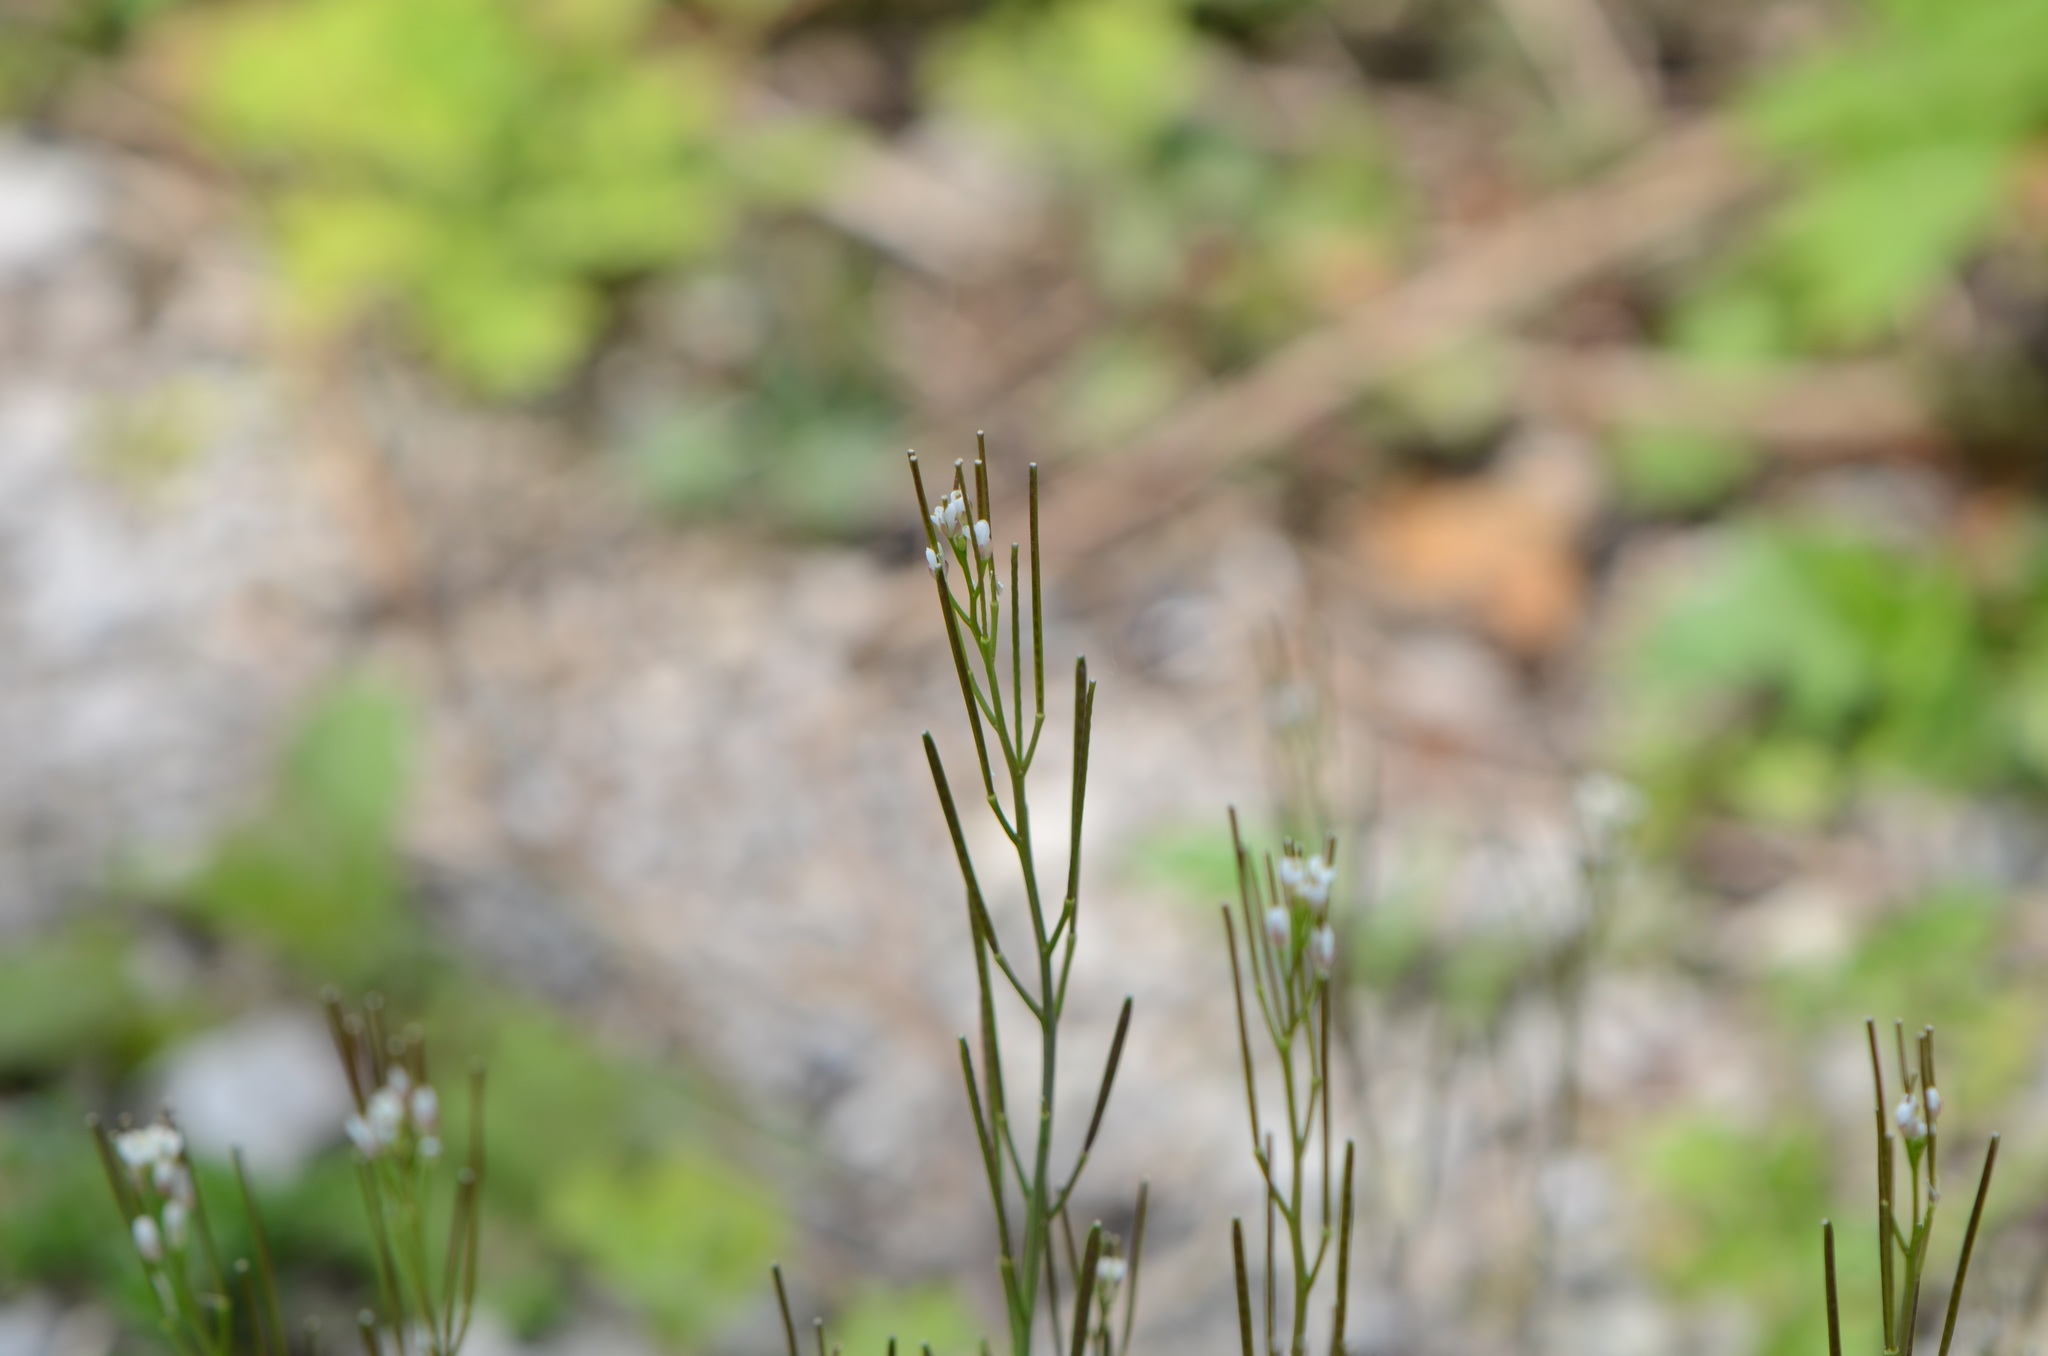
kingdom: Plantae
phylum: Tracheophyta
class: Magnoliopsida
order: Brassicales
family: Brassicaceae
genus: Cardamine
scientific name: Cardamine hirsuta
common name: Hairy bittercress
